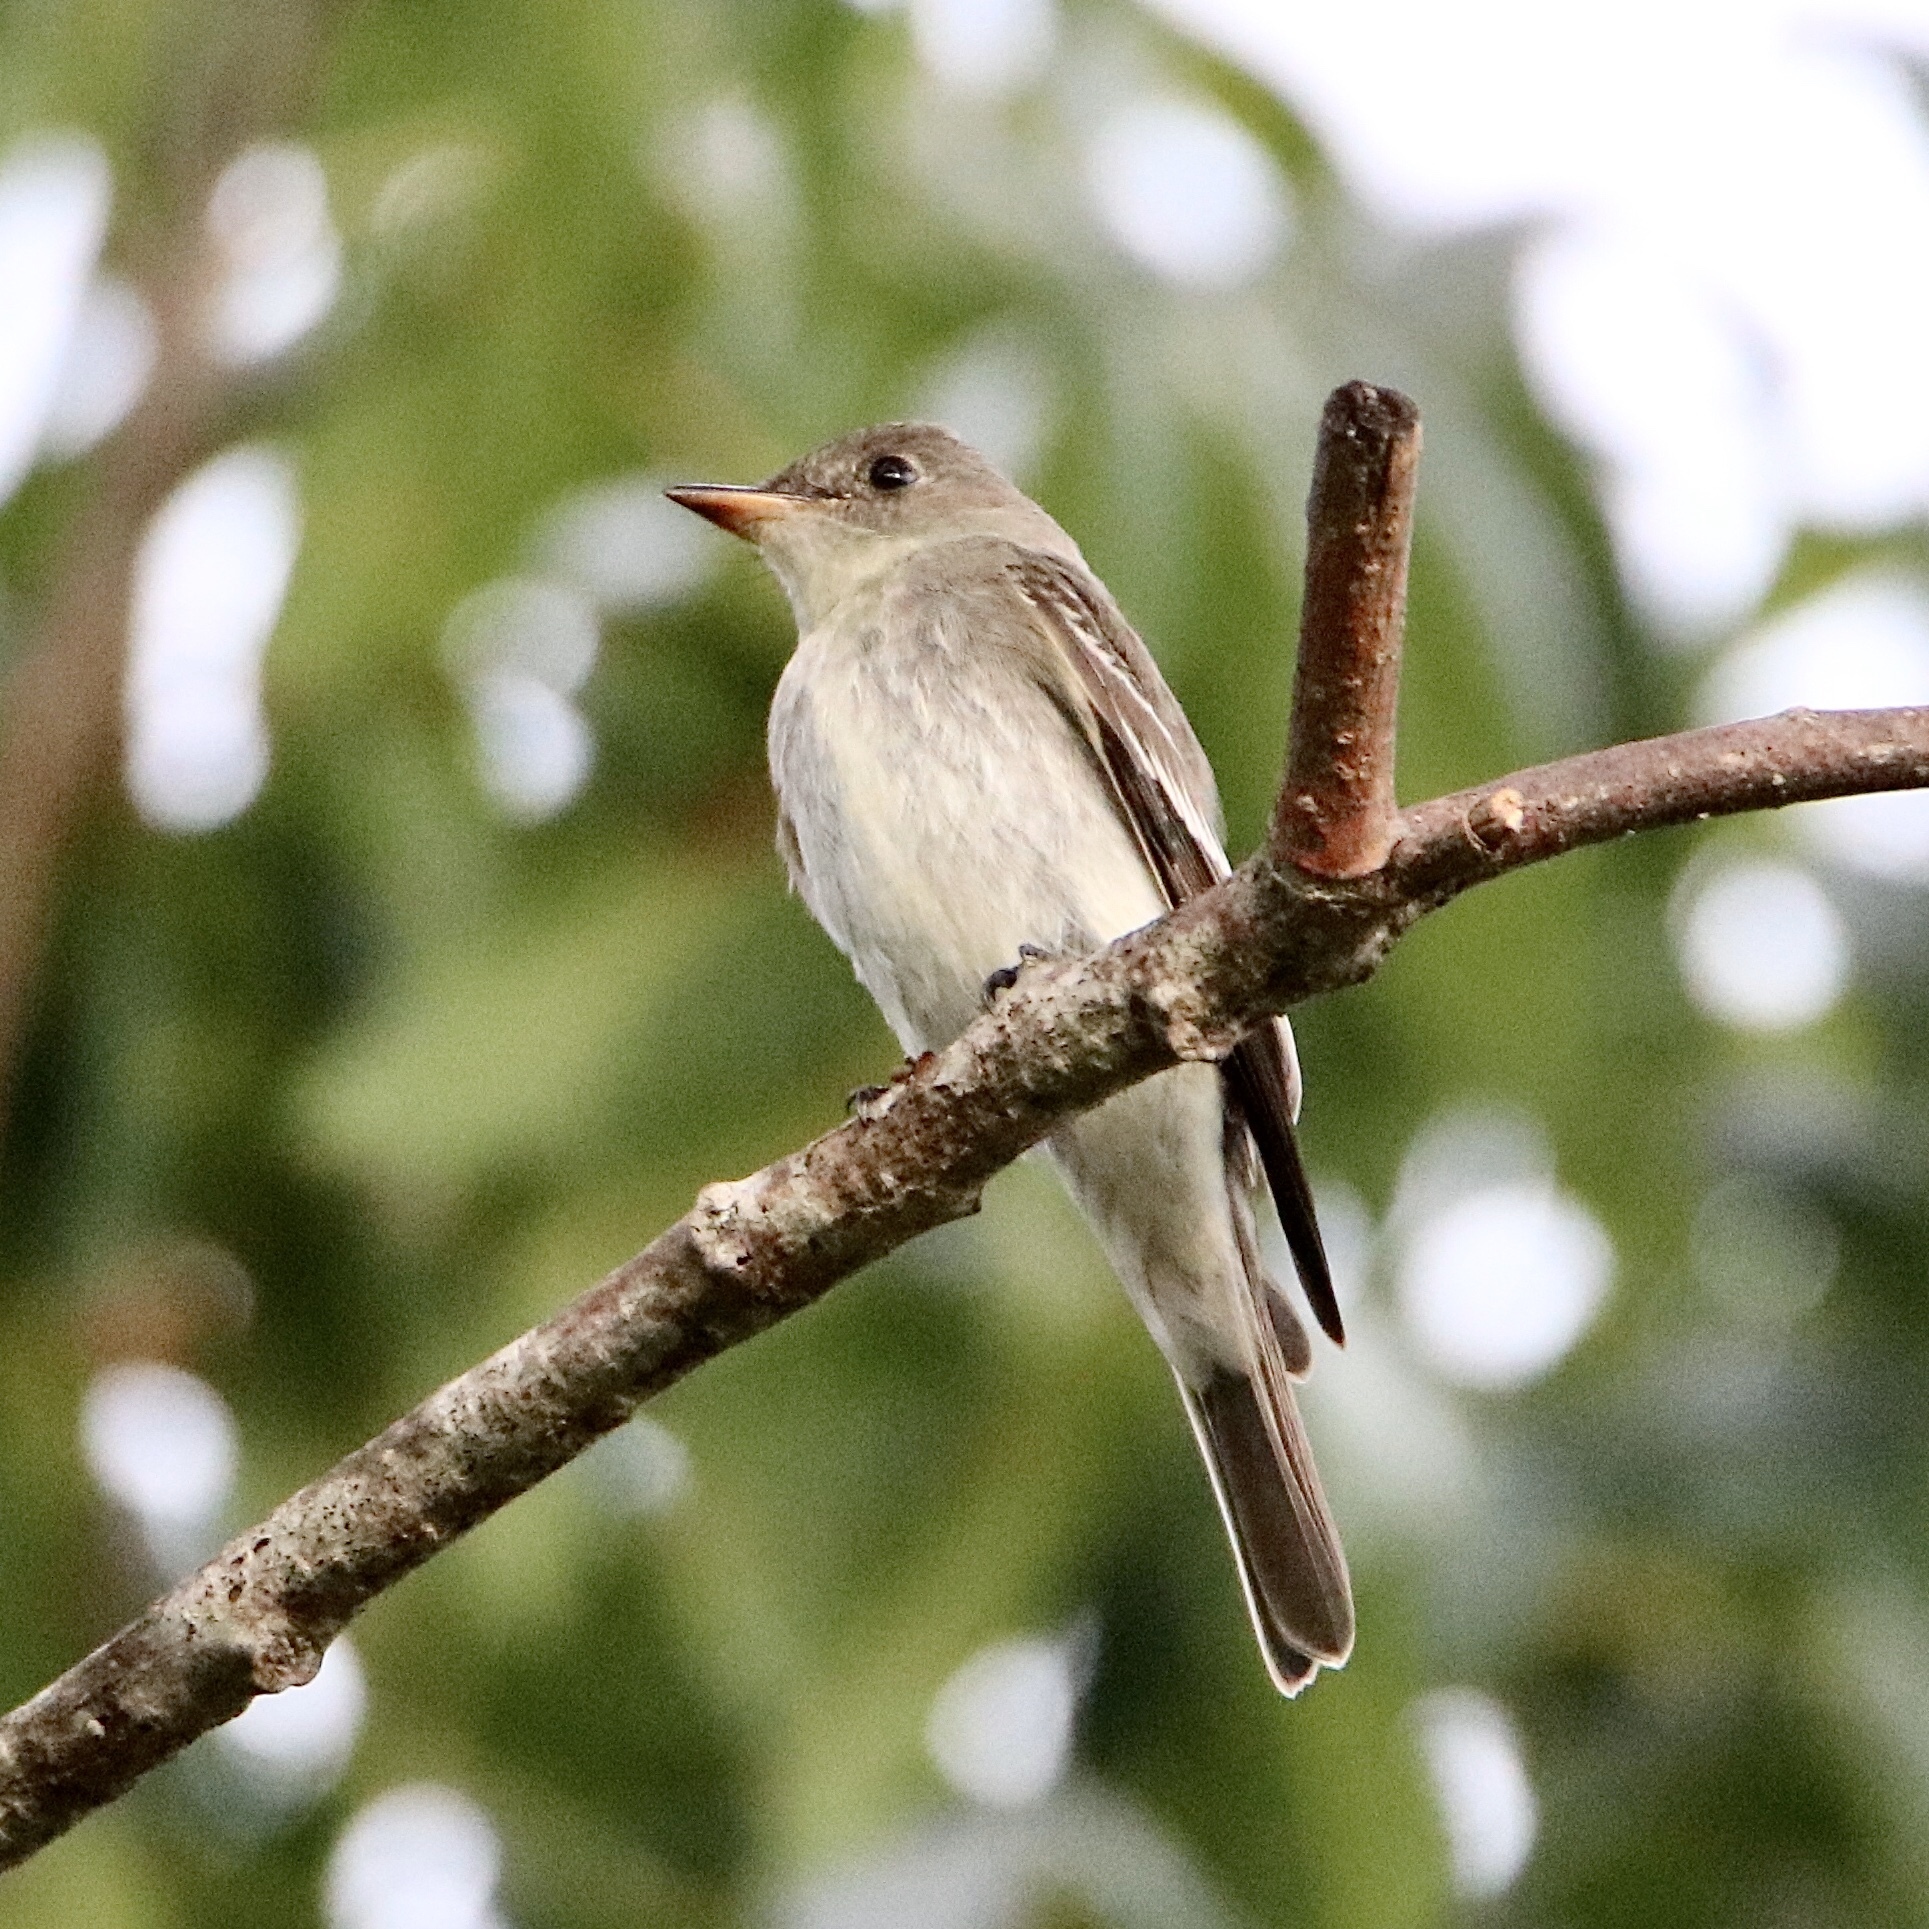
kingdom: Animalia
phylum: Chordata
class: Aves
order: Passeriformes
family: Tyrannidae
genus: Contopus
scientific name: Contopus virens
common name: Eastern wood-pewee
